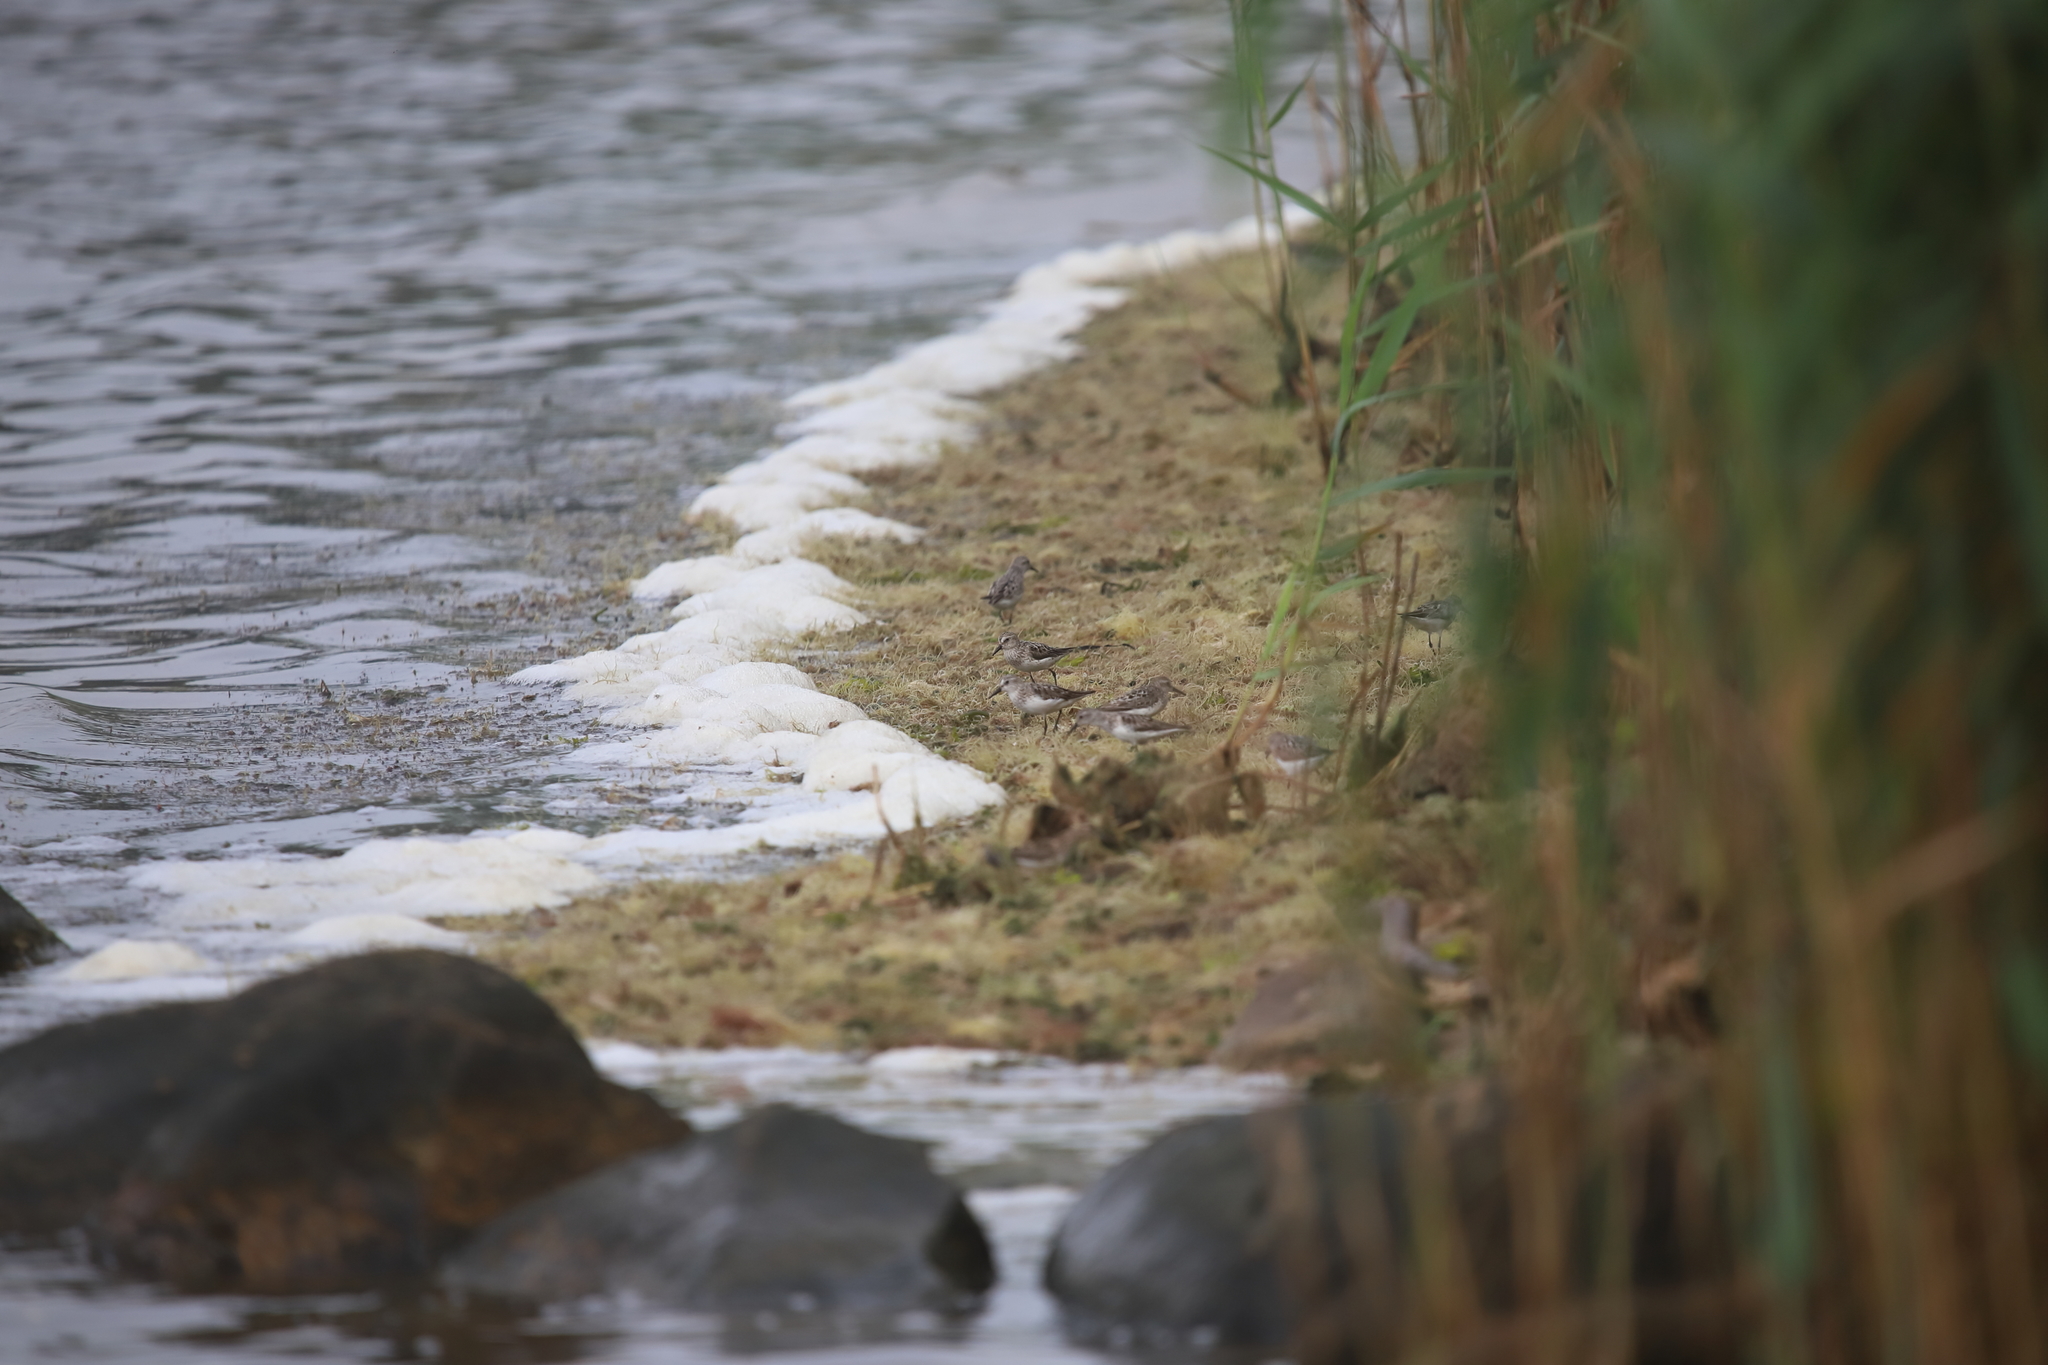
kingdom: Animalia
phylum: Chordata
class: Aves
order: Charadriiformes
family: Scolopacidae
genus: Calidris
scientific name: Calidris pusilla
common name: Semipalmated sandpiper
